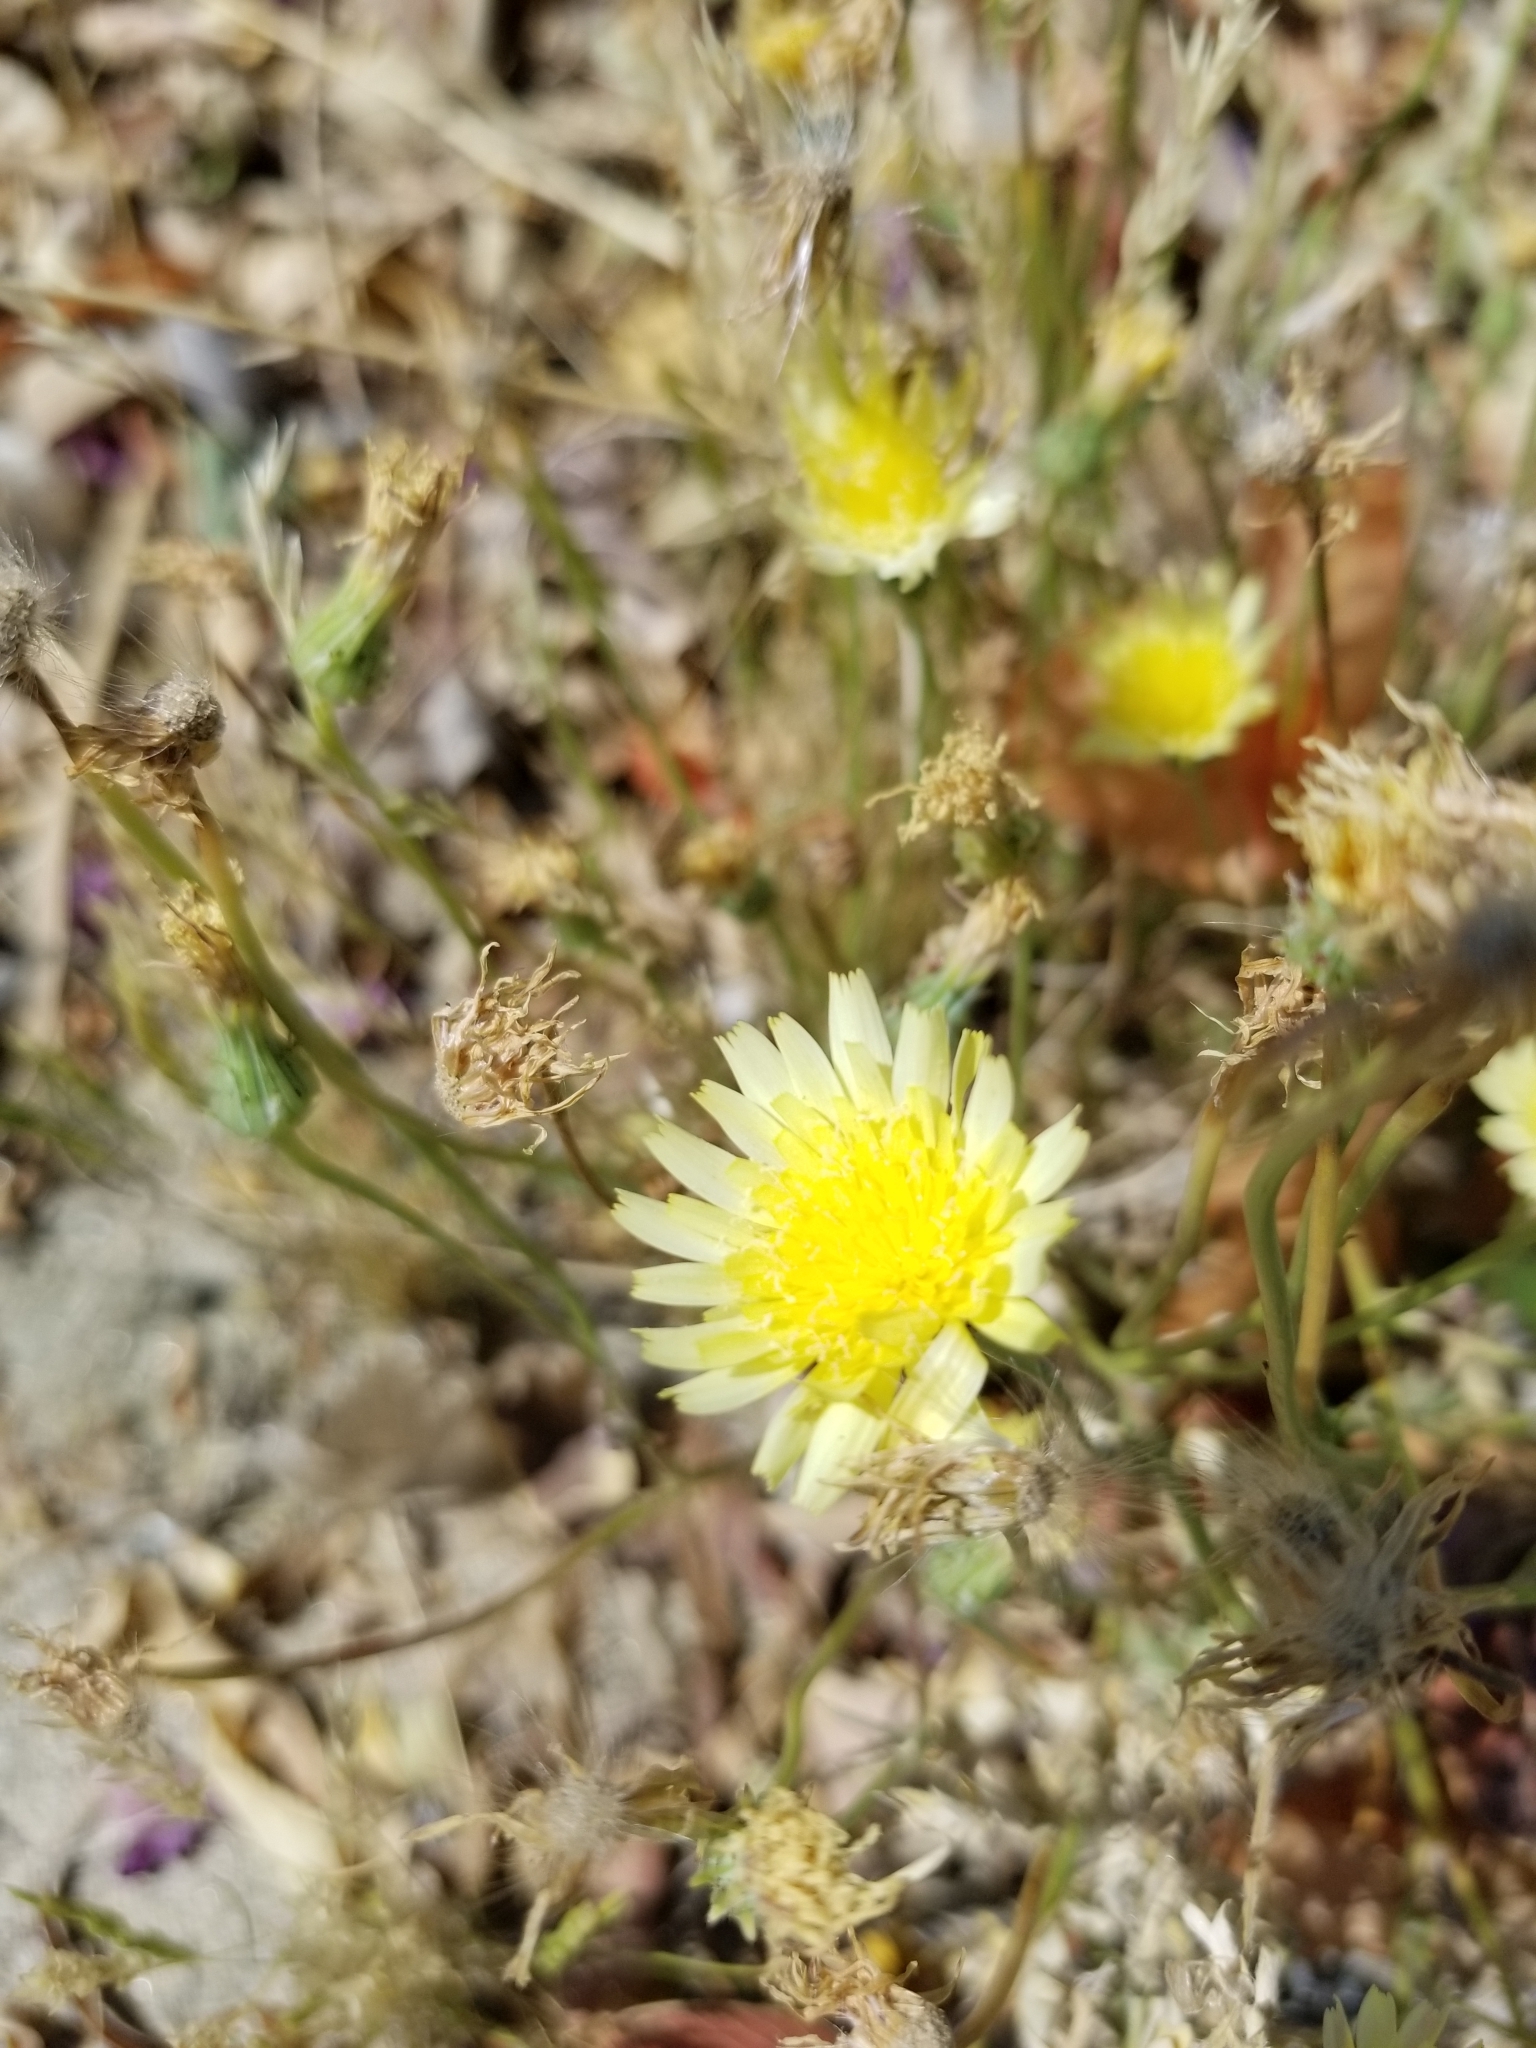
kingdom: Plantae
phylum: Tracheophyta
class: Magnoliopsida
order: Asterales
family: Asteraceae
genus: Malacothrix
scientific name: Malacothrix glabrata
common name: Smooth desert-dandelion
